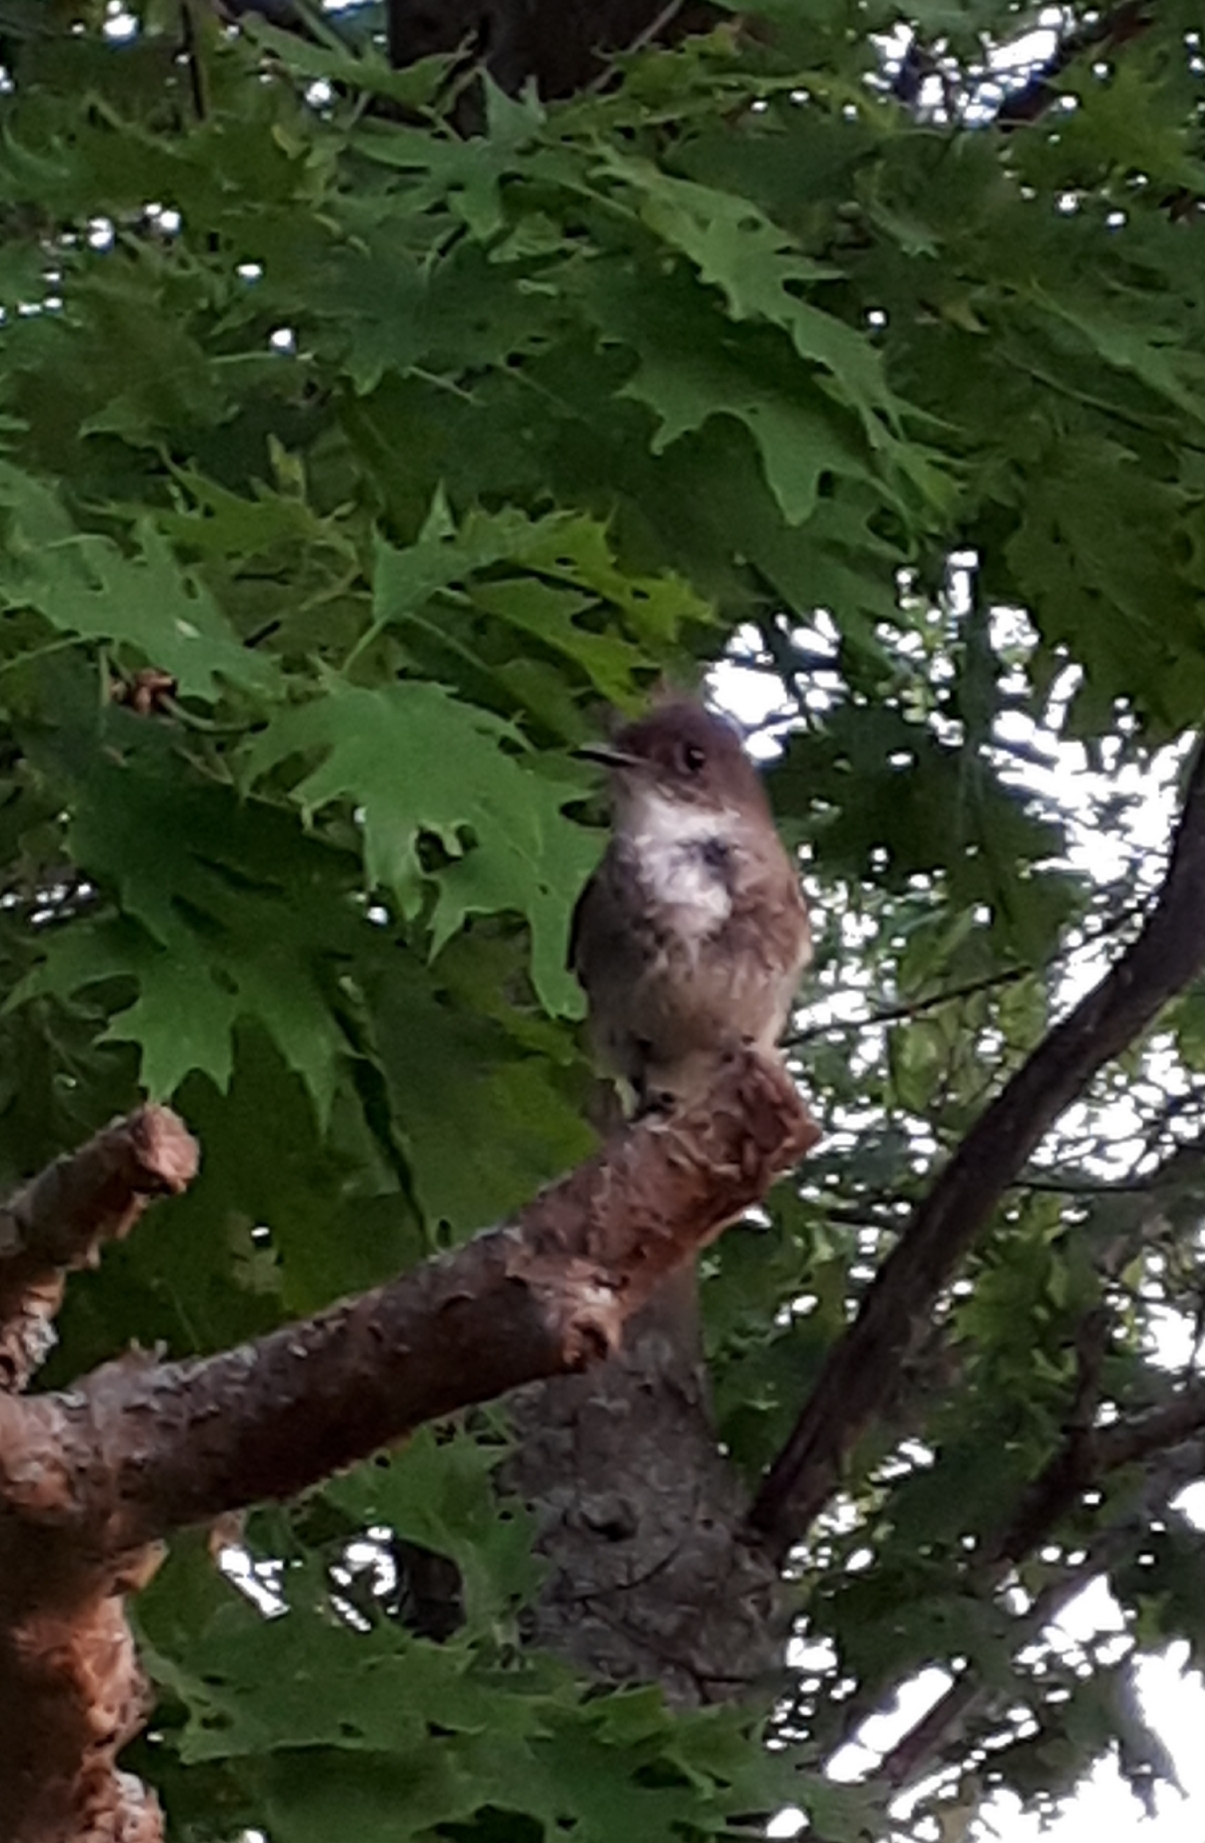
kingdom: Animalia
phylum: Chordata
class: Aves
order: Passeriformes
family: Tyrannidae
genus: Sayornis
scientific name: Sayornis phoebe
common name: Eastern phoebe
